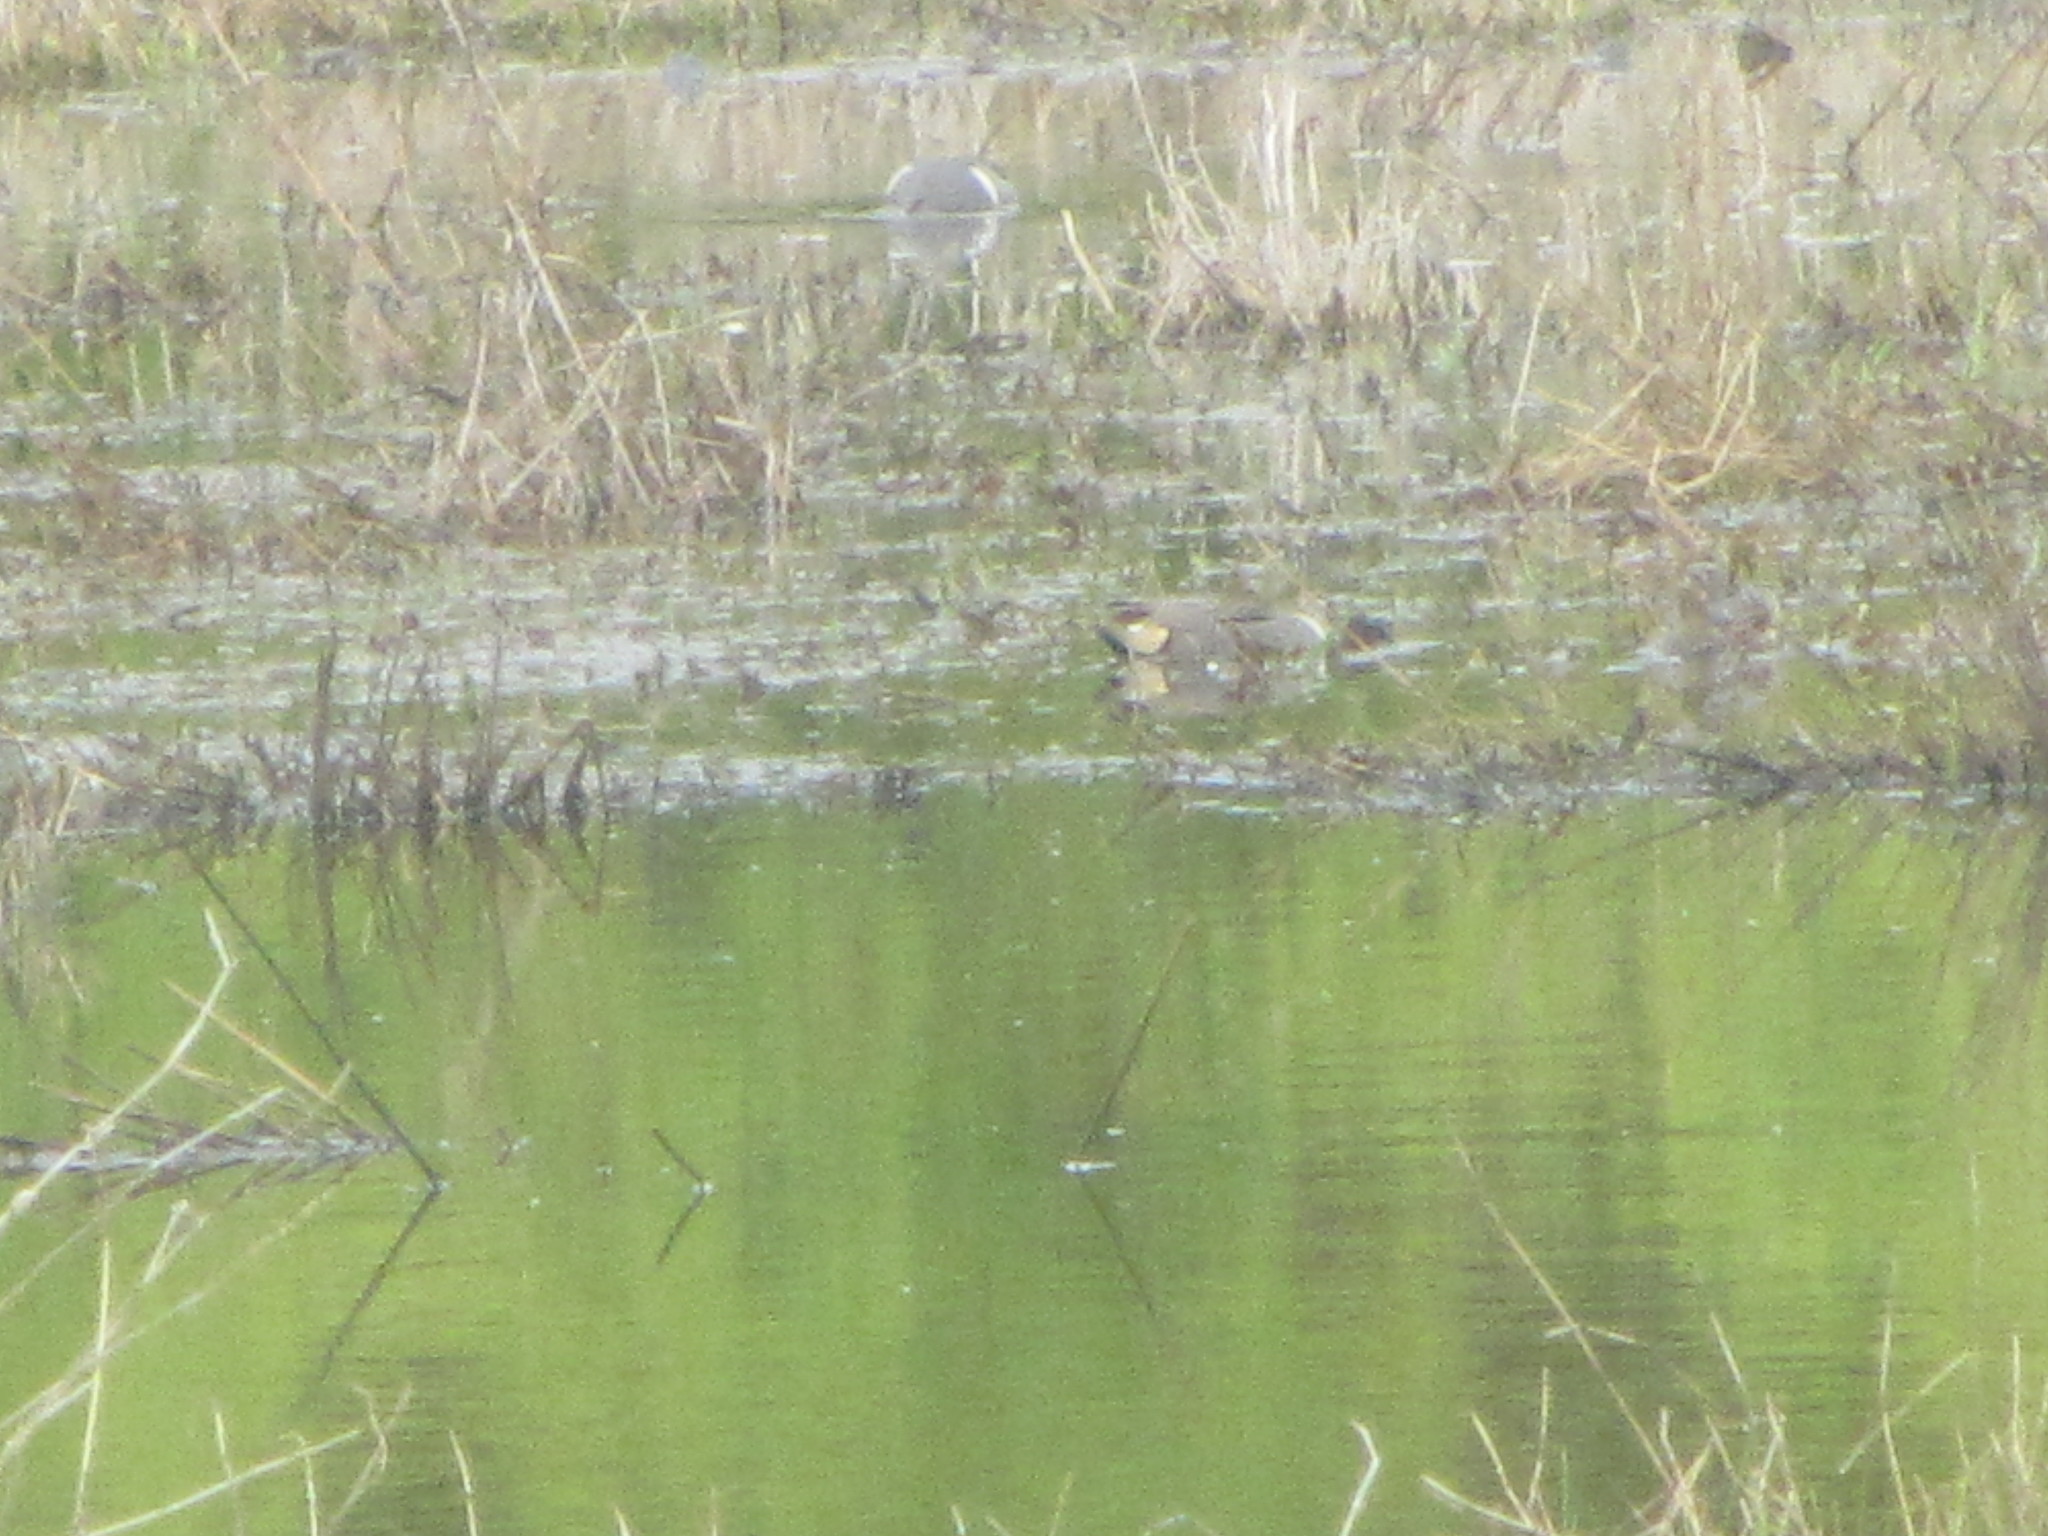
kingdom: Animalia
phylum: Chordata
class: Aves
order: Anseriformes
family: Anatidae
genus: Anas
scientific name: Anas crecca
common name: Eurasian teal
